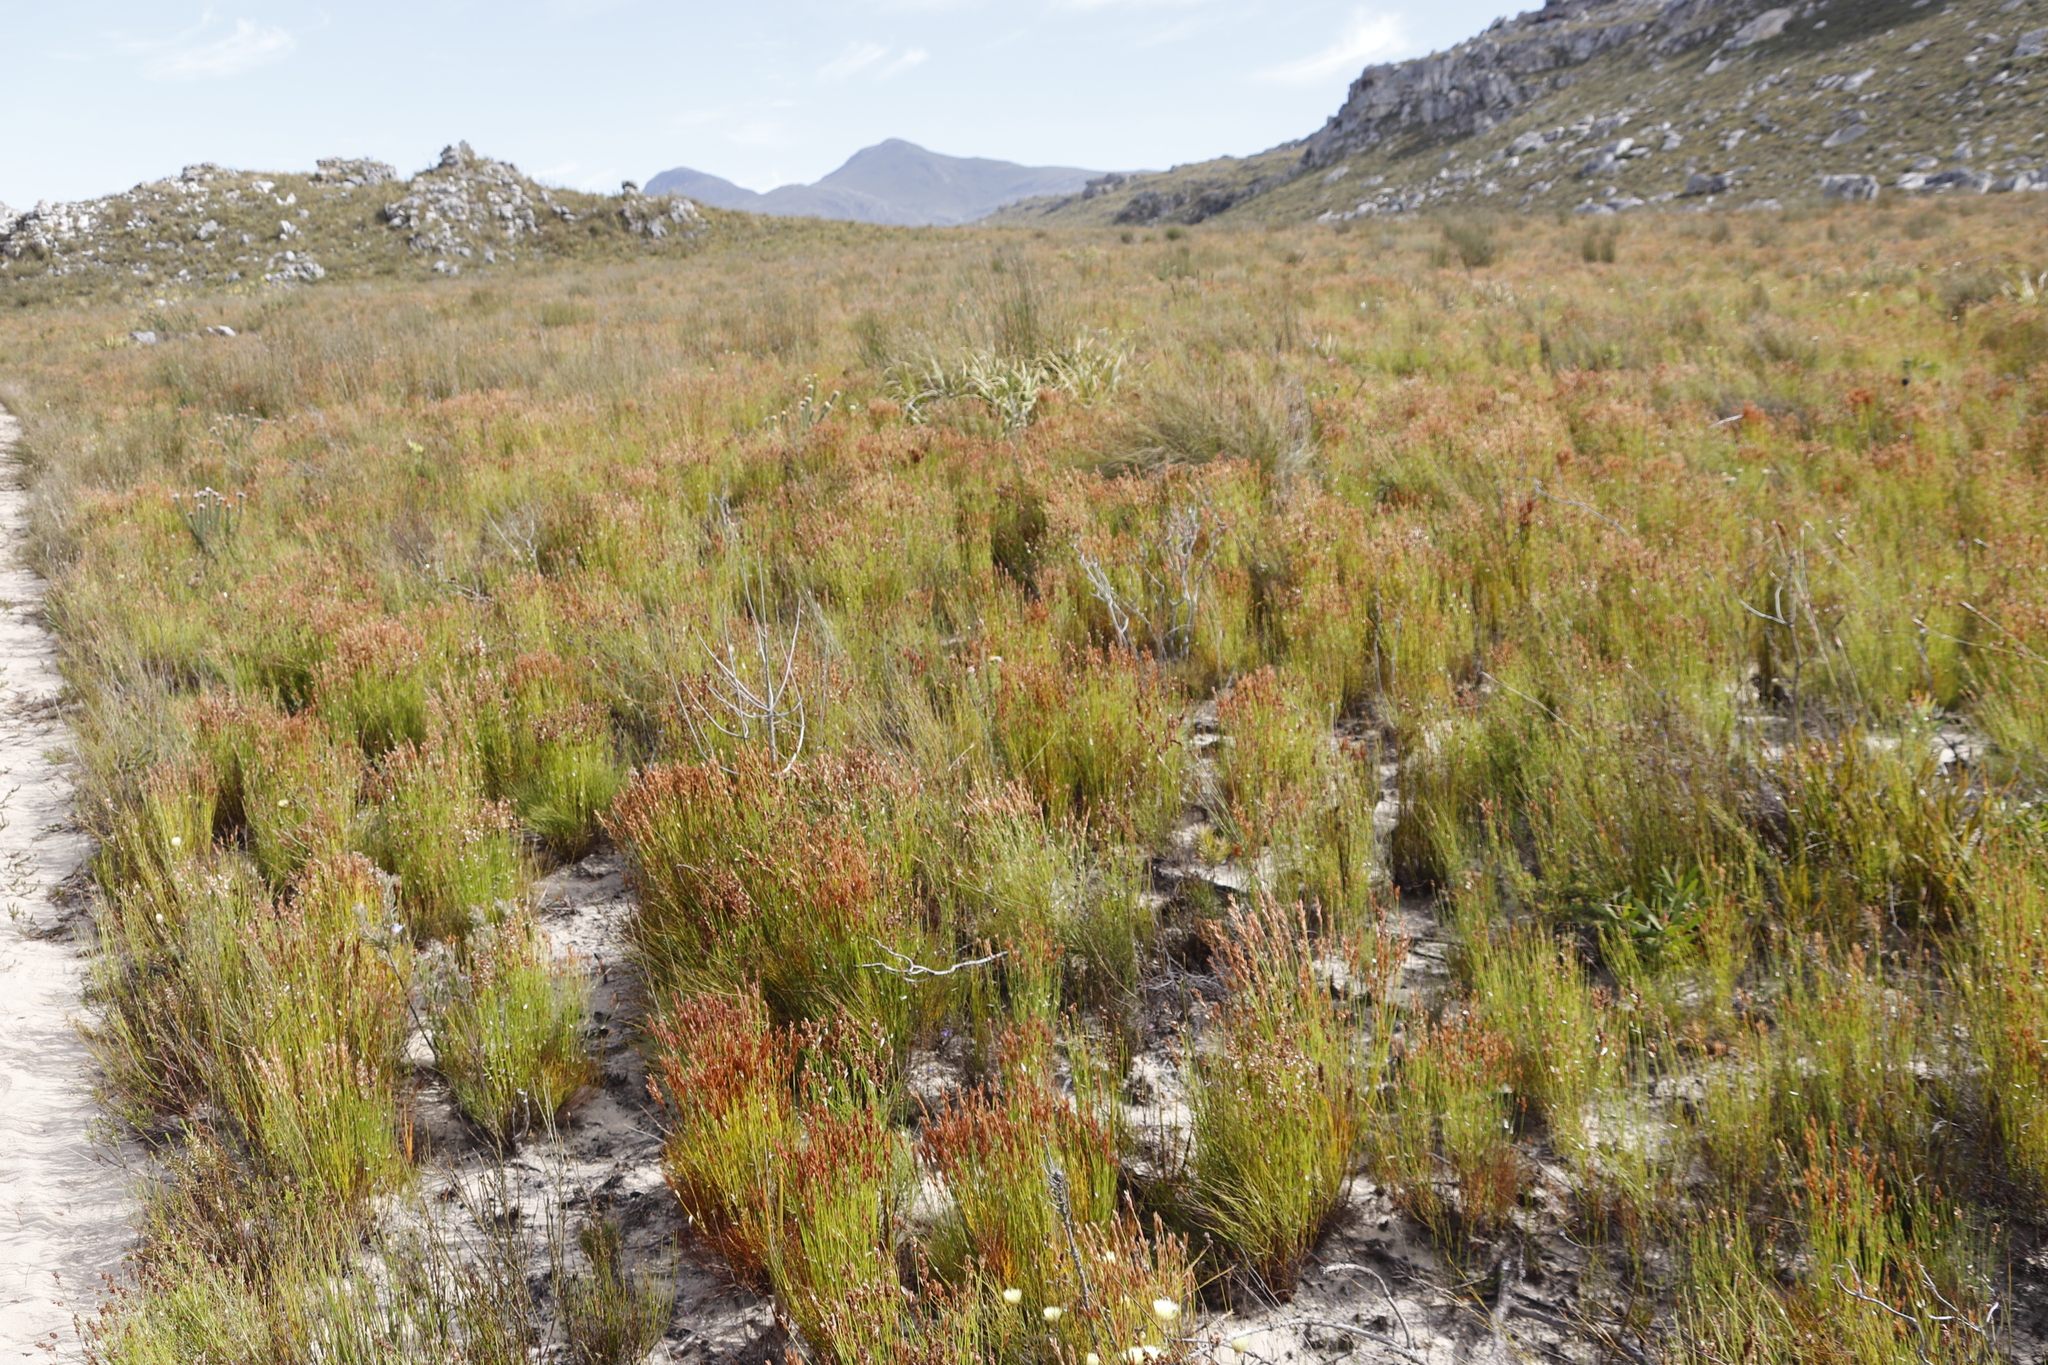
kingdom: Plantae
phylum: Tracheophyta
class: Liliopsida
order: Poales
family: Restionaceae
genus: Elegia
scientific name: Elegia stipularis
